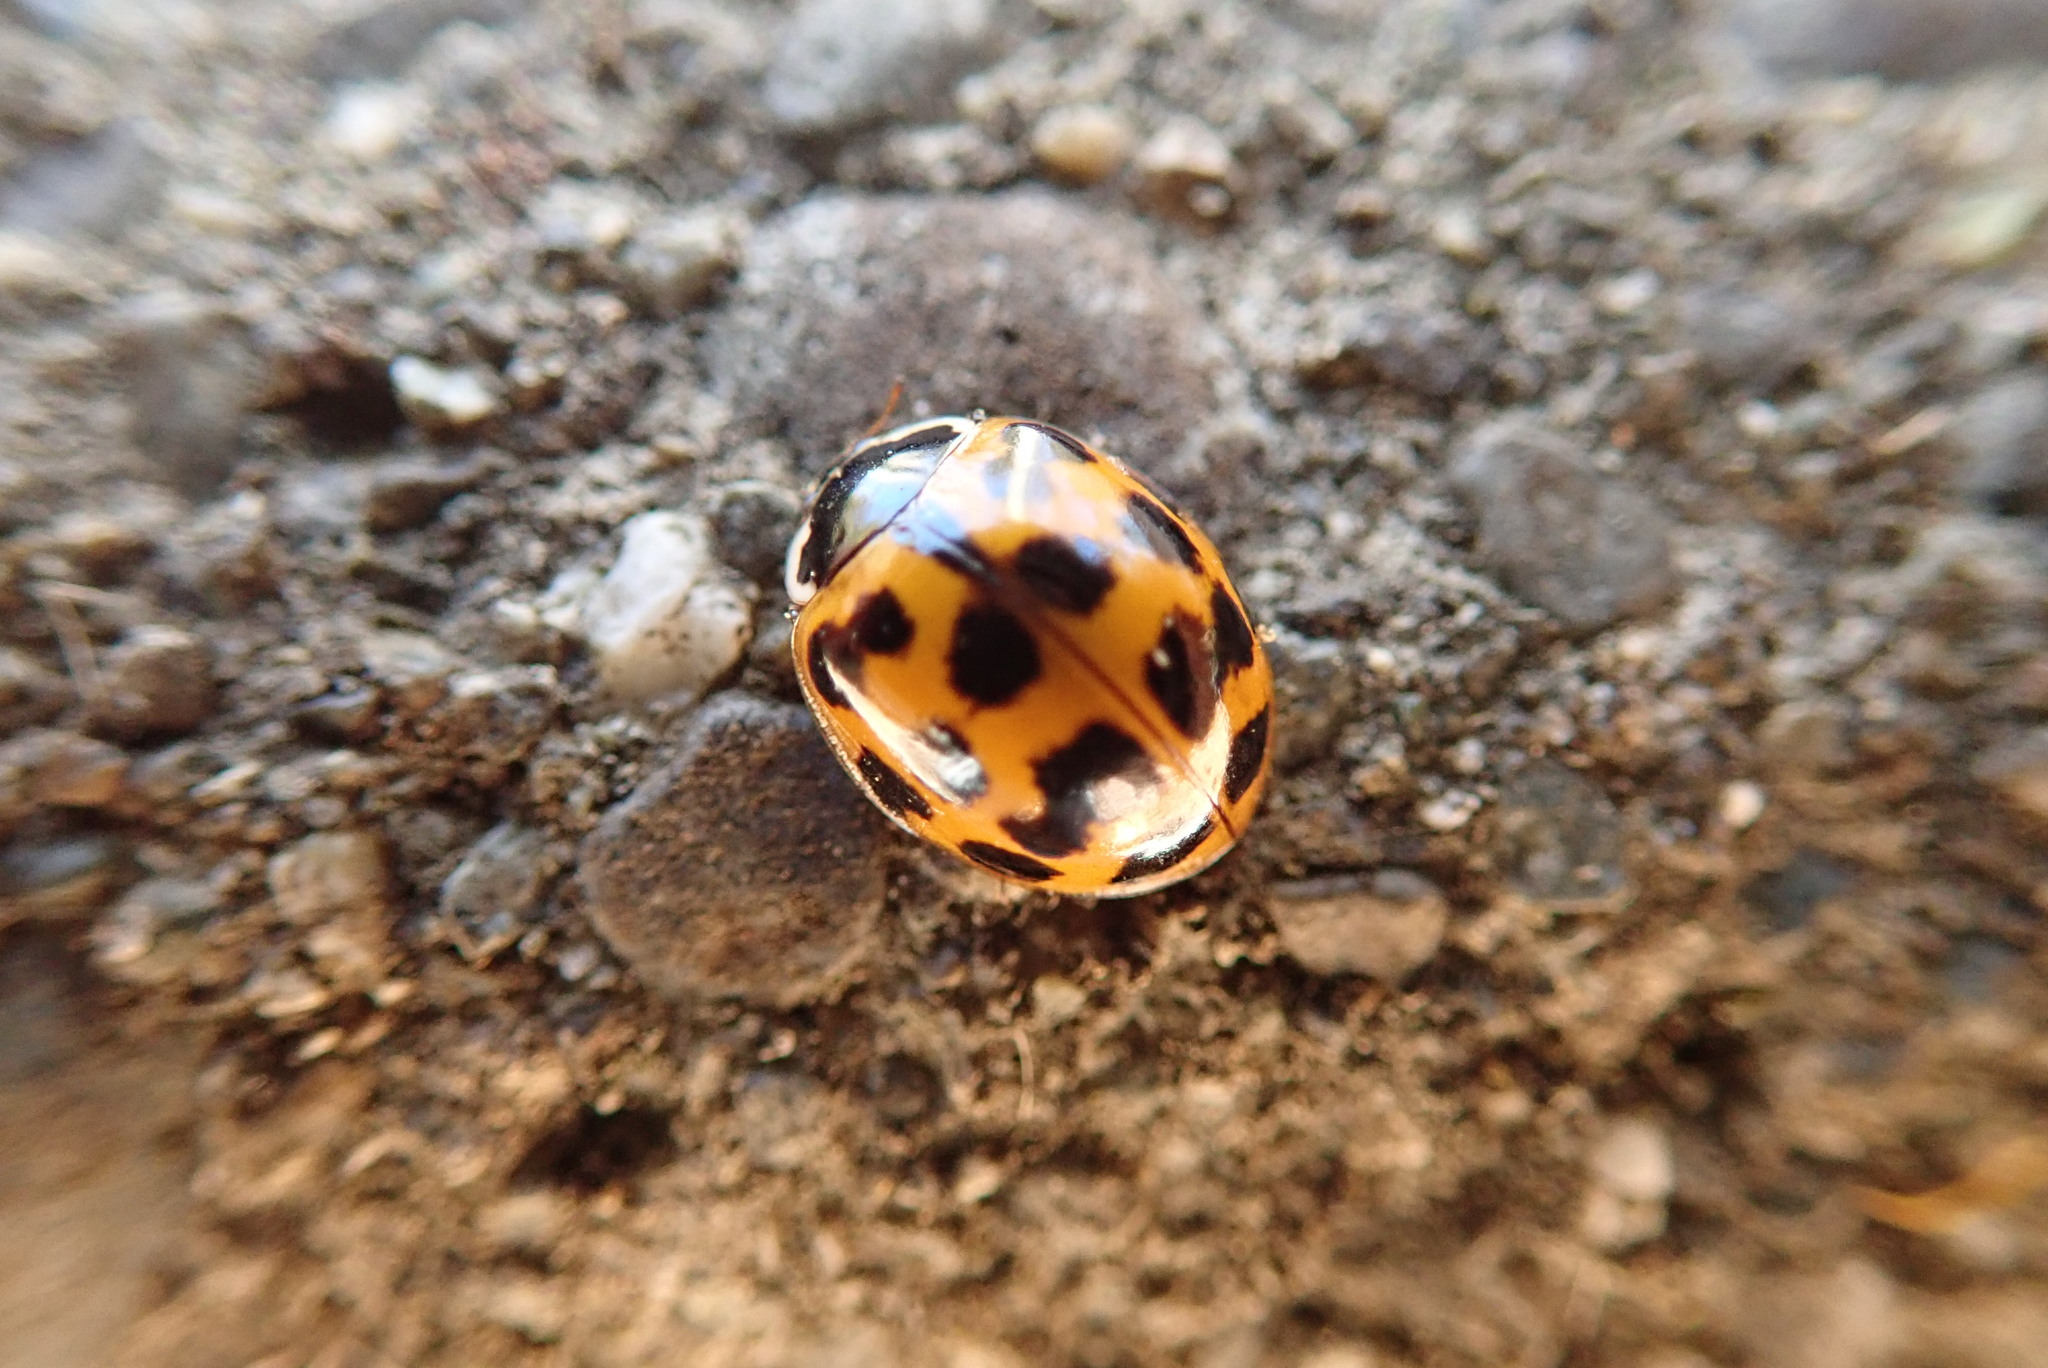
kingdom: Animalia
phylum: Arthropoda
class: Insecta
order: Coleoptera
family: Coccinellidae
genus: Harmonia
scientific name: Harmonia axyridis
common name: Harlequin ladybird
